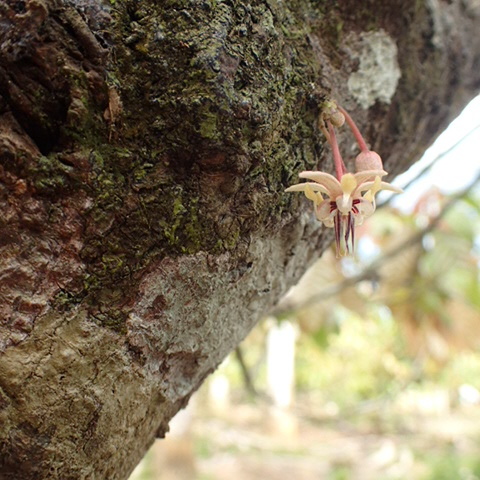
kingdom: Plantae
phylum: Tracheophyta
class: Magnoliopsida
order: Malvales
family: Malvaceae
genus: Theobroma
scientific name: Theobroma cacao
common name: Cocoa
